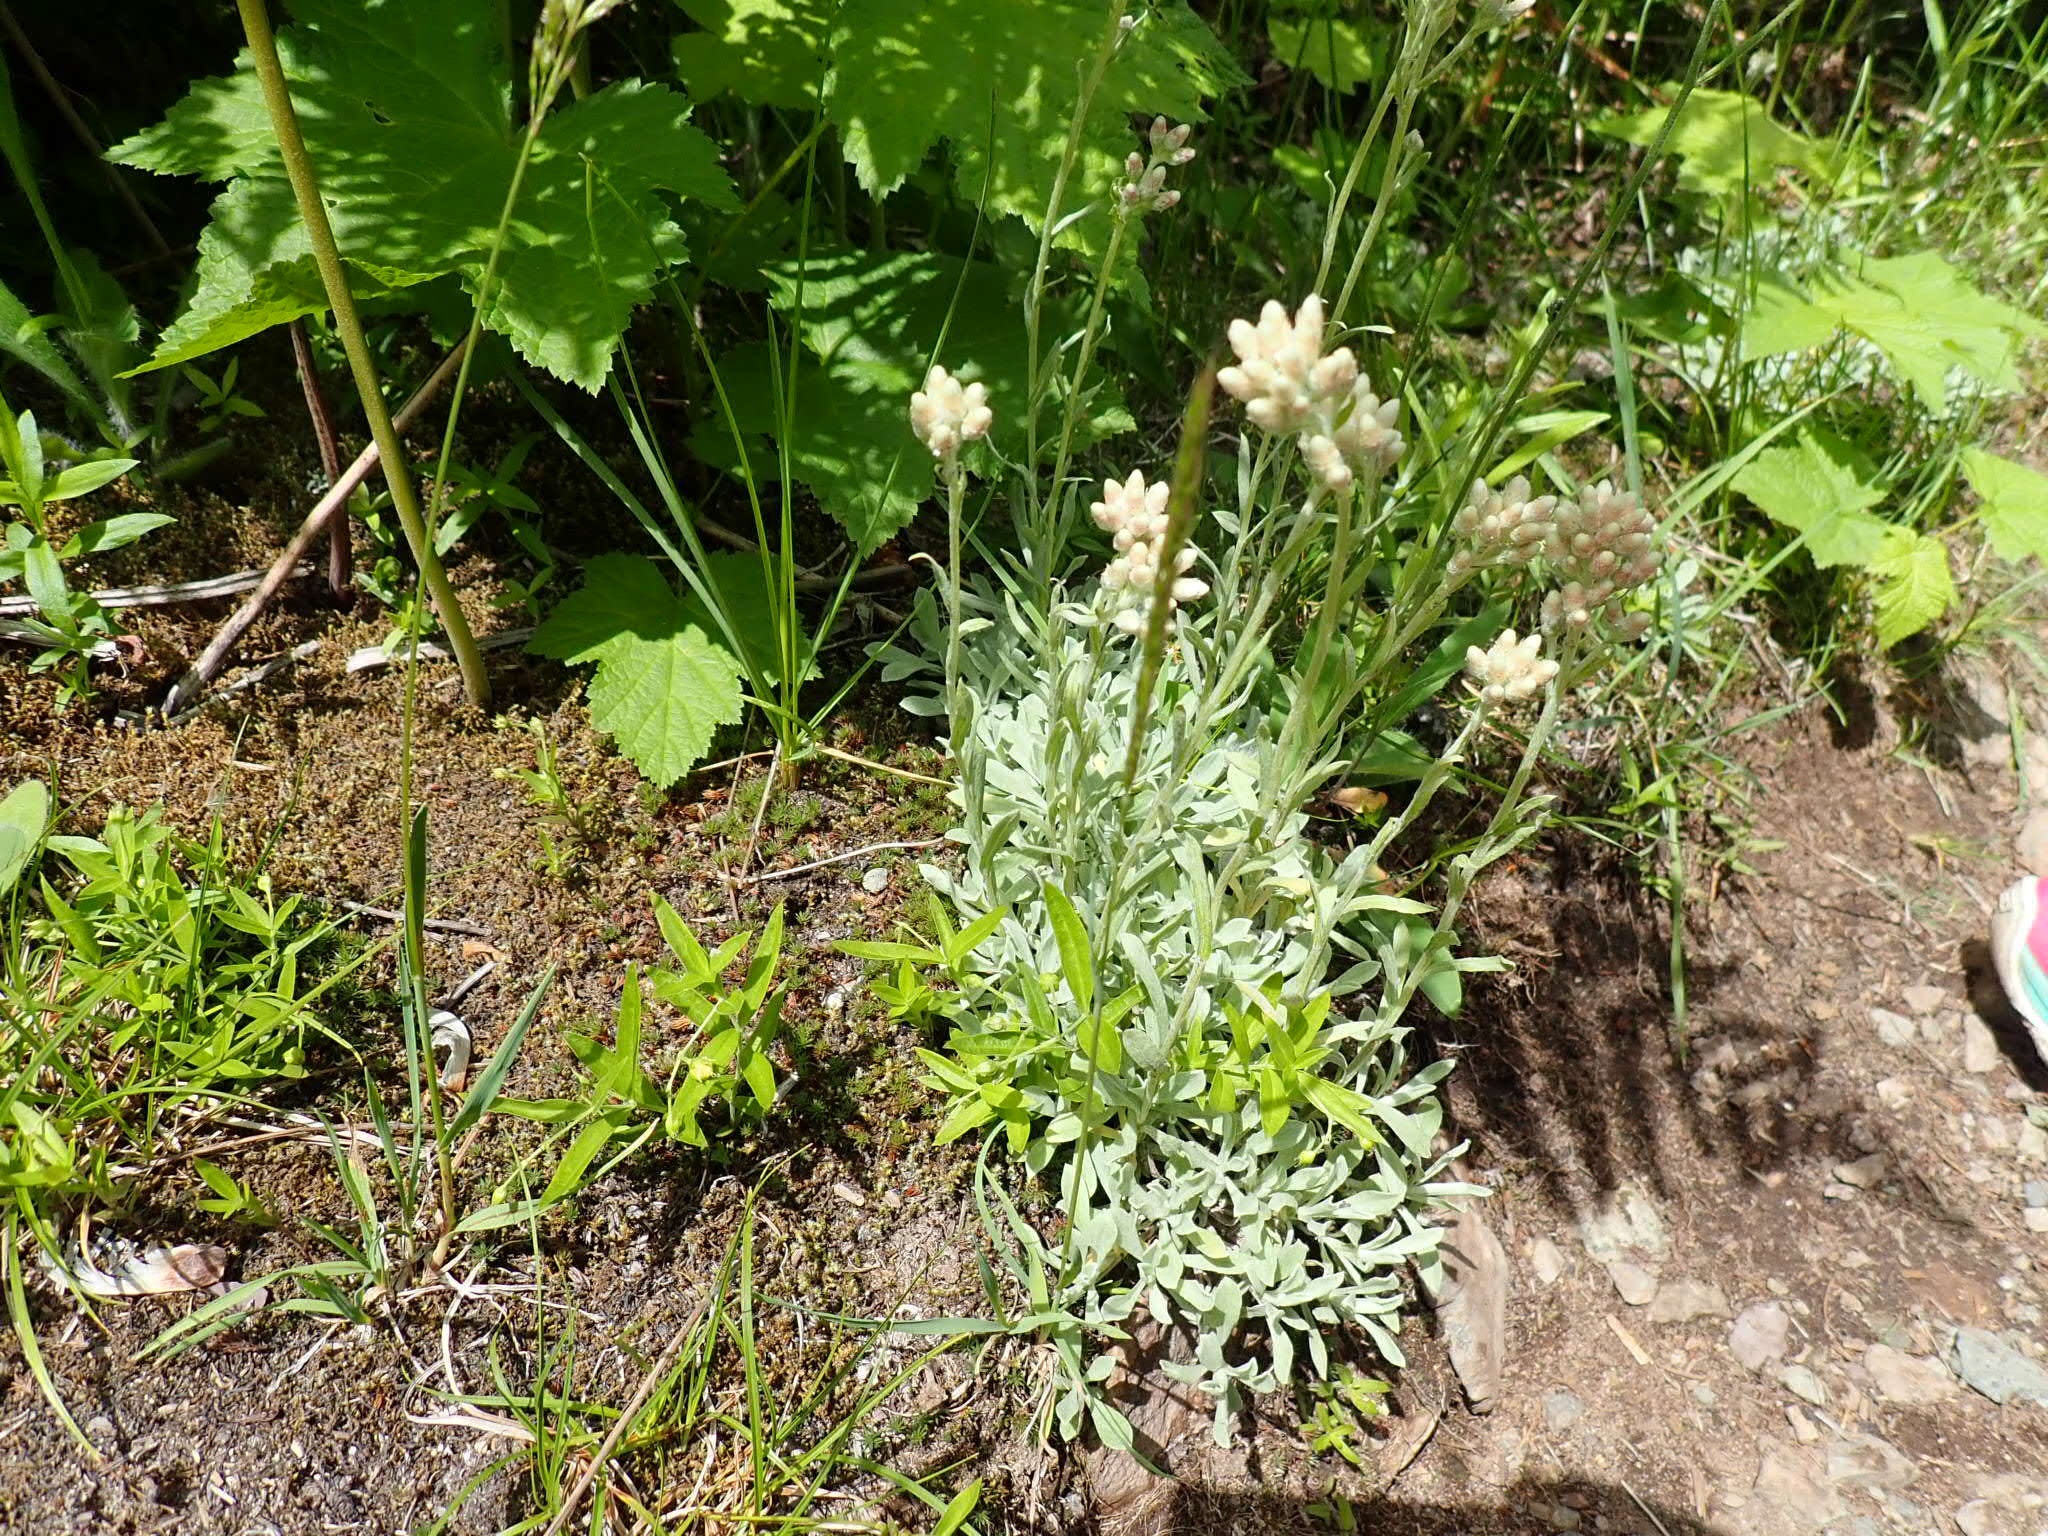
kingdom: Plantae
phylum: Tracheophyta
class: Magnoliopsida
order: Asterales
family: Asteraceae
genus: Antennaria
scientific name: Antennaria rosea
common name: Rosy pussytoes
